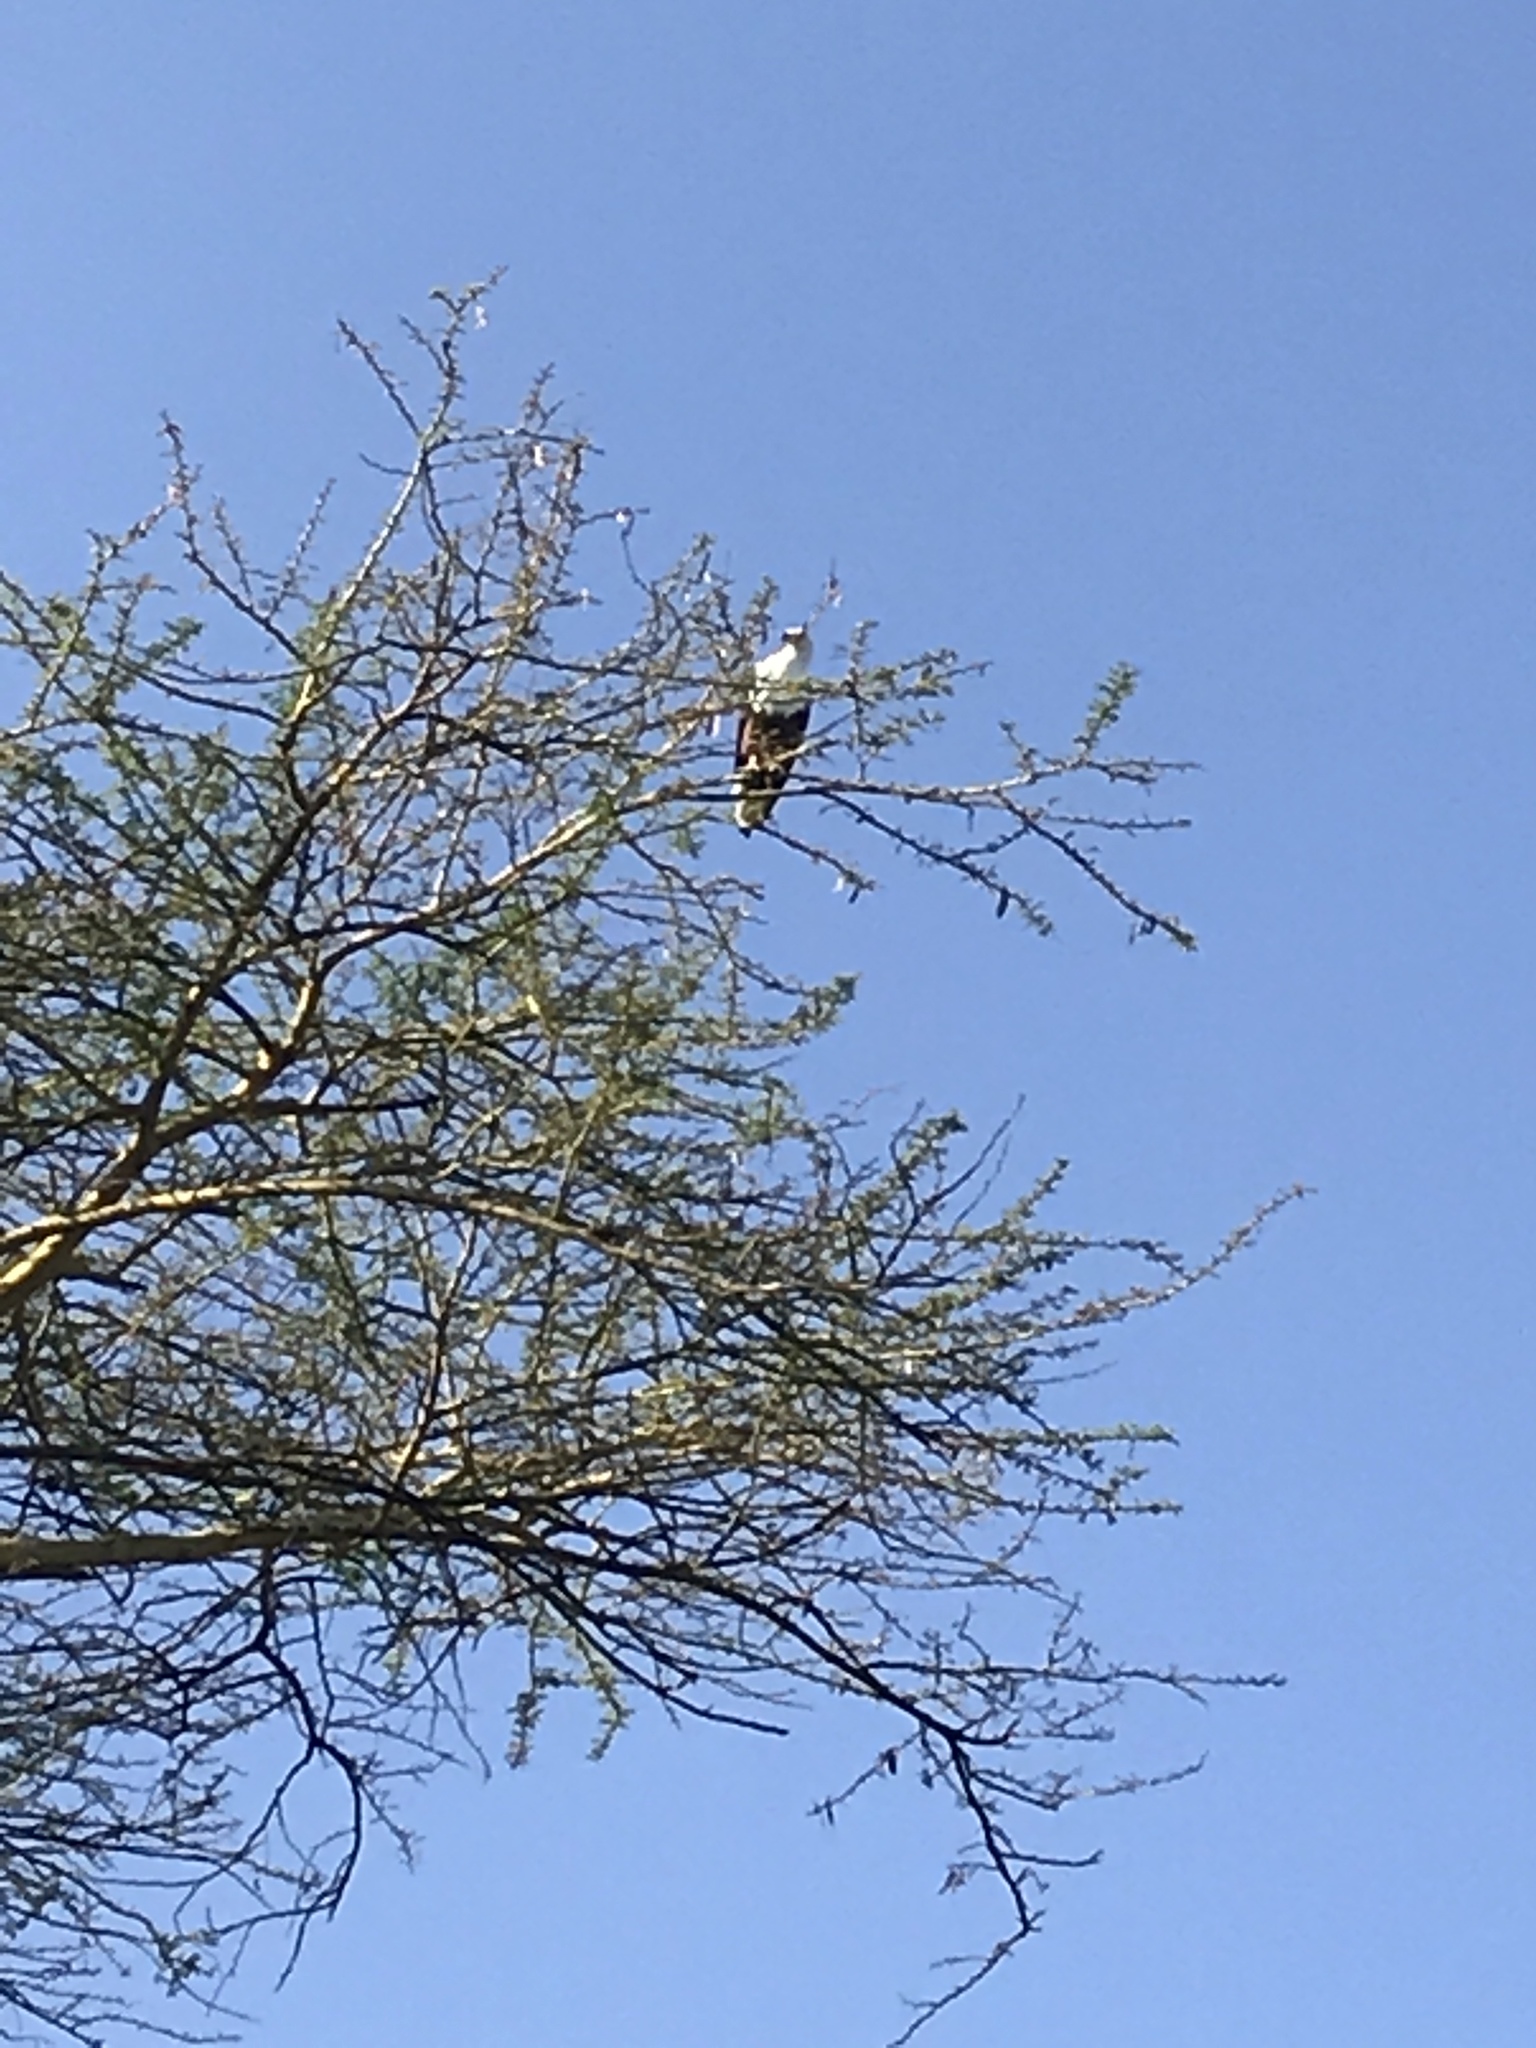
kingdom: Animalia
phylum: Chordata
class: Aves
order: Accipitriformes
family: Accipitridae
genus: Haliaeetus
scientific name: Haliaeetus vocifer
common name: African fish eagle
